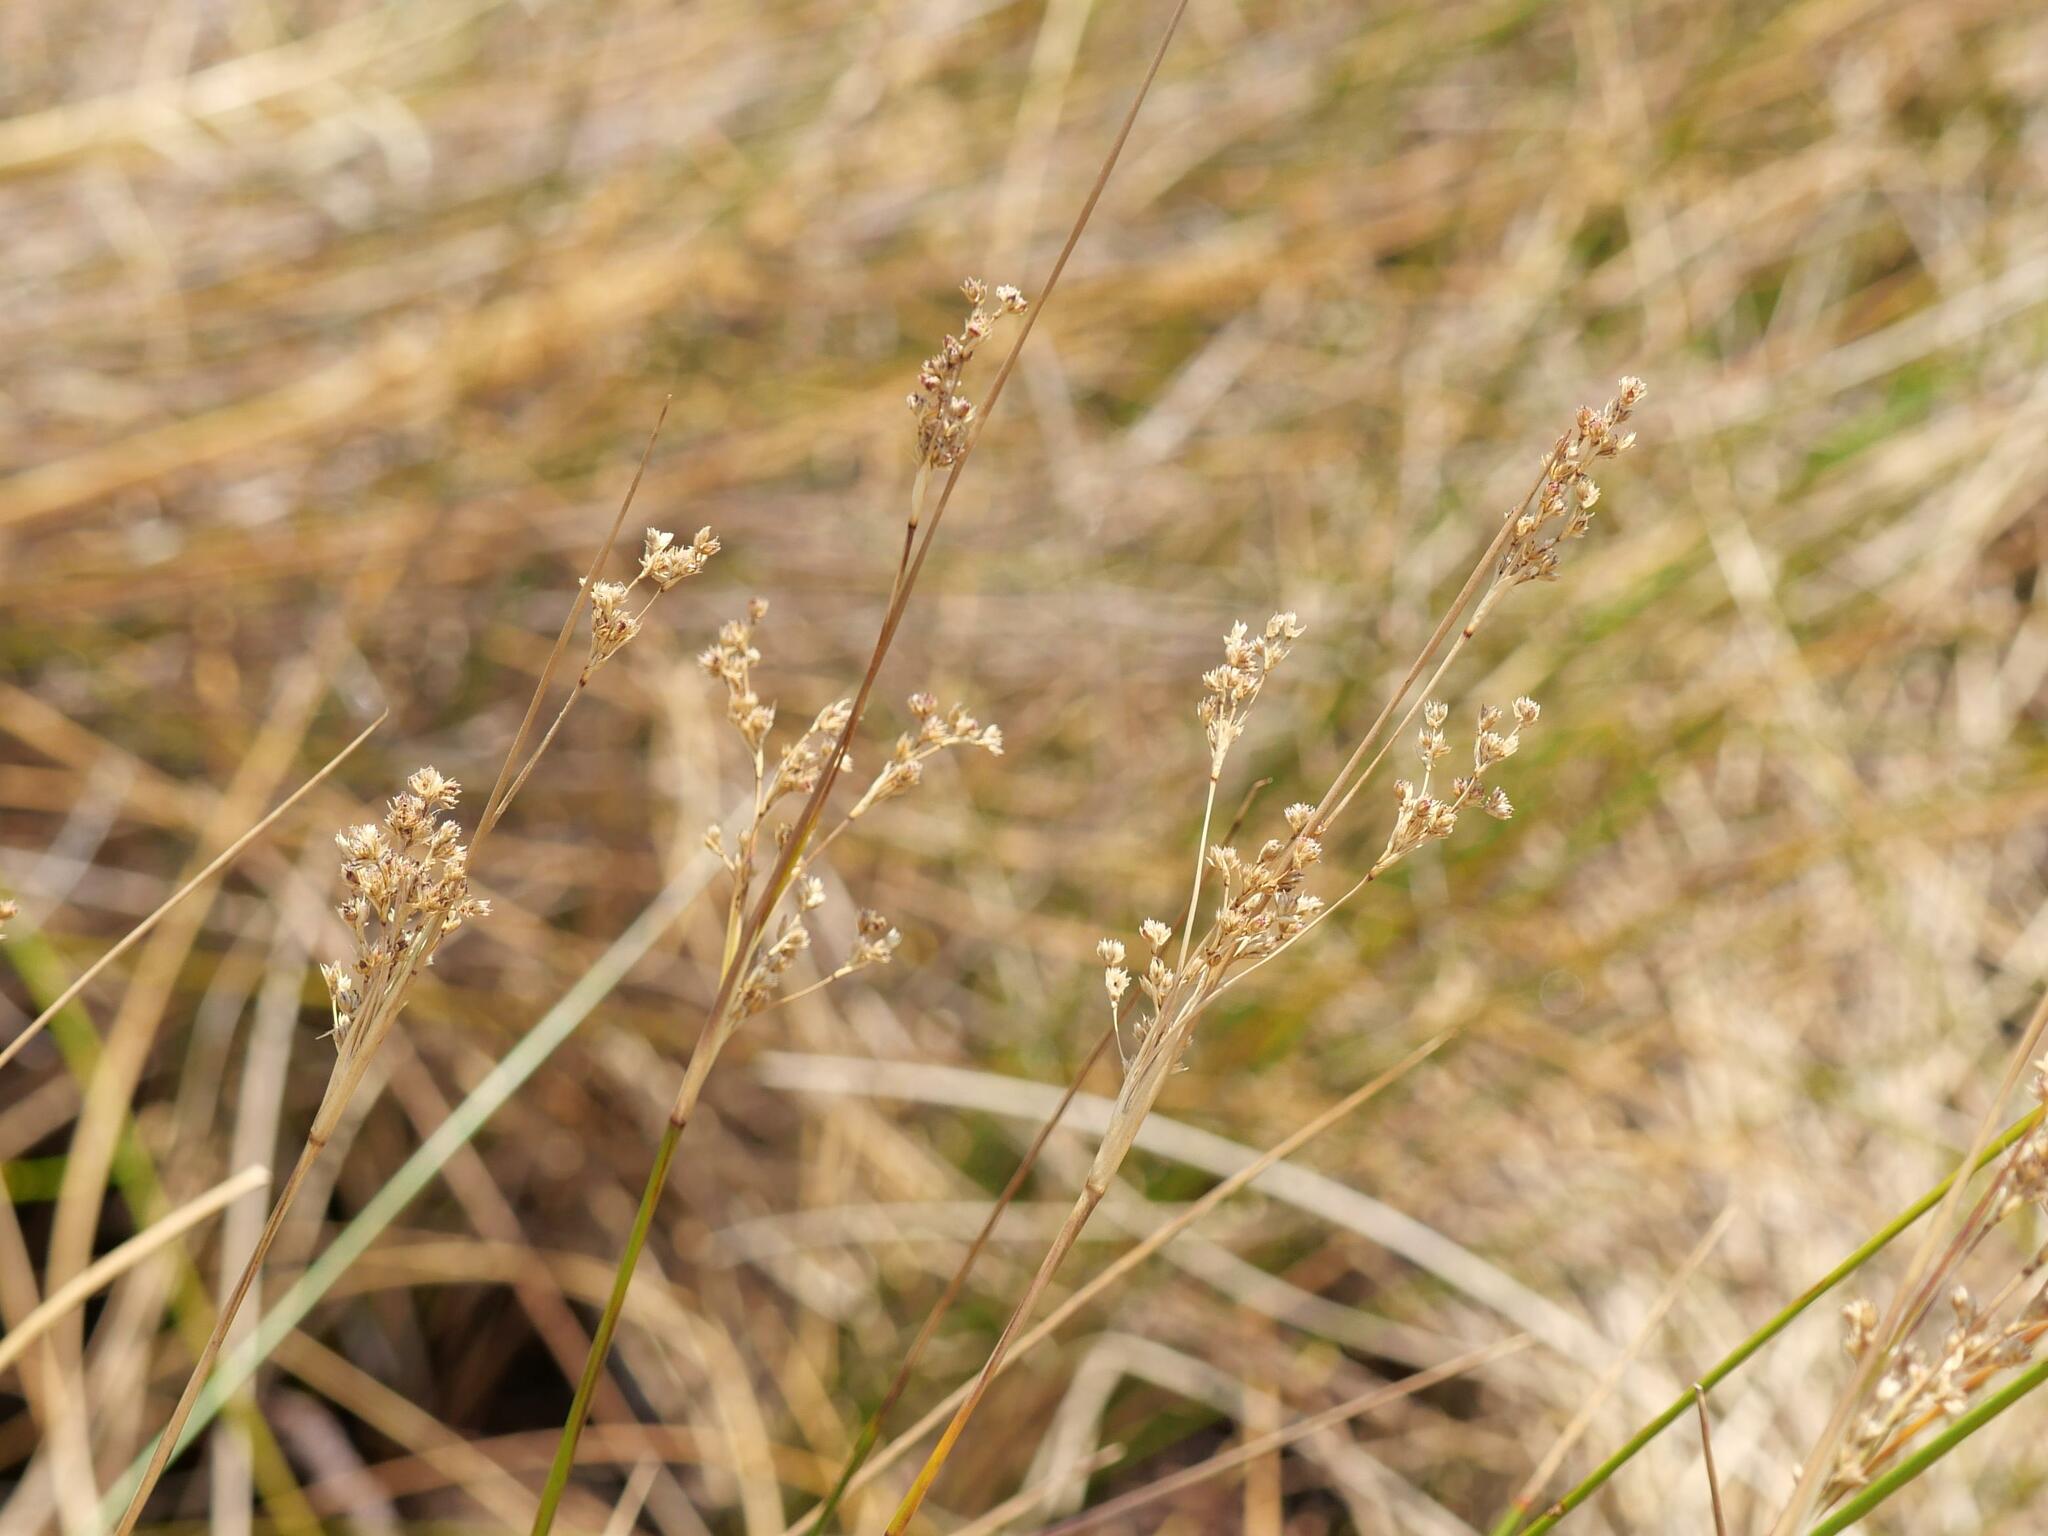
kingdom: Plantae
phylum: Tracheophyta
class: Liliopsida
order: Poales
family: Juncaceae
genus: Juncus
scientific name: Juncus maritimus
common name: Sea rush
